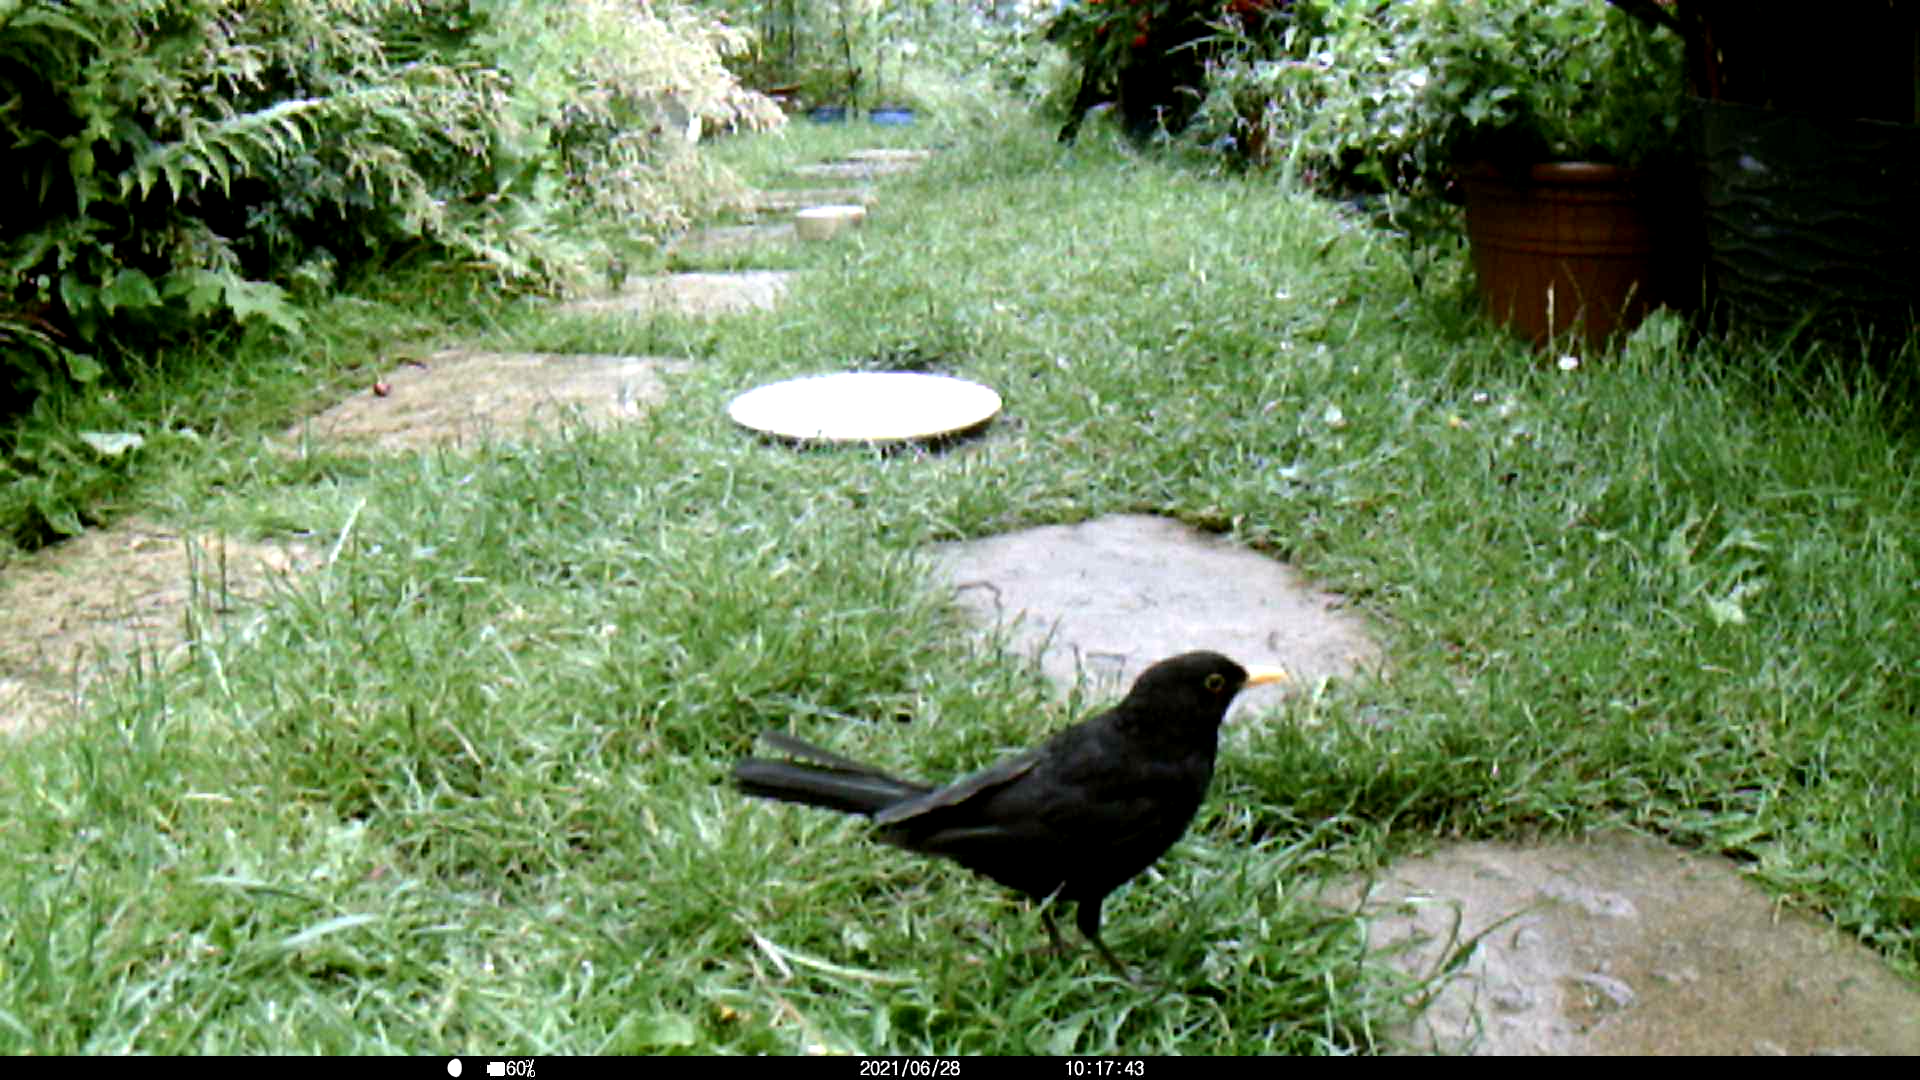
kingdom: Animalia
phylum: Chordata
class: Aves
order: Passeriformes
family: Turdidae
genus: Turdus
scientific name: Turdus merula
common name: Common blackbird
